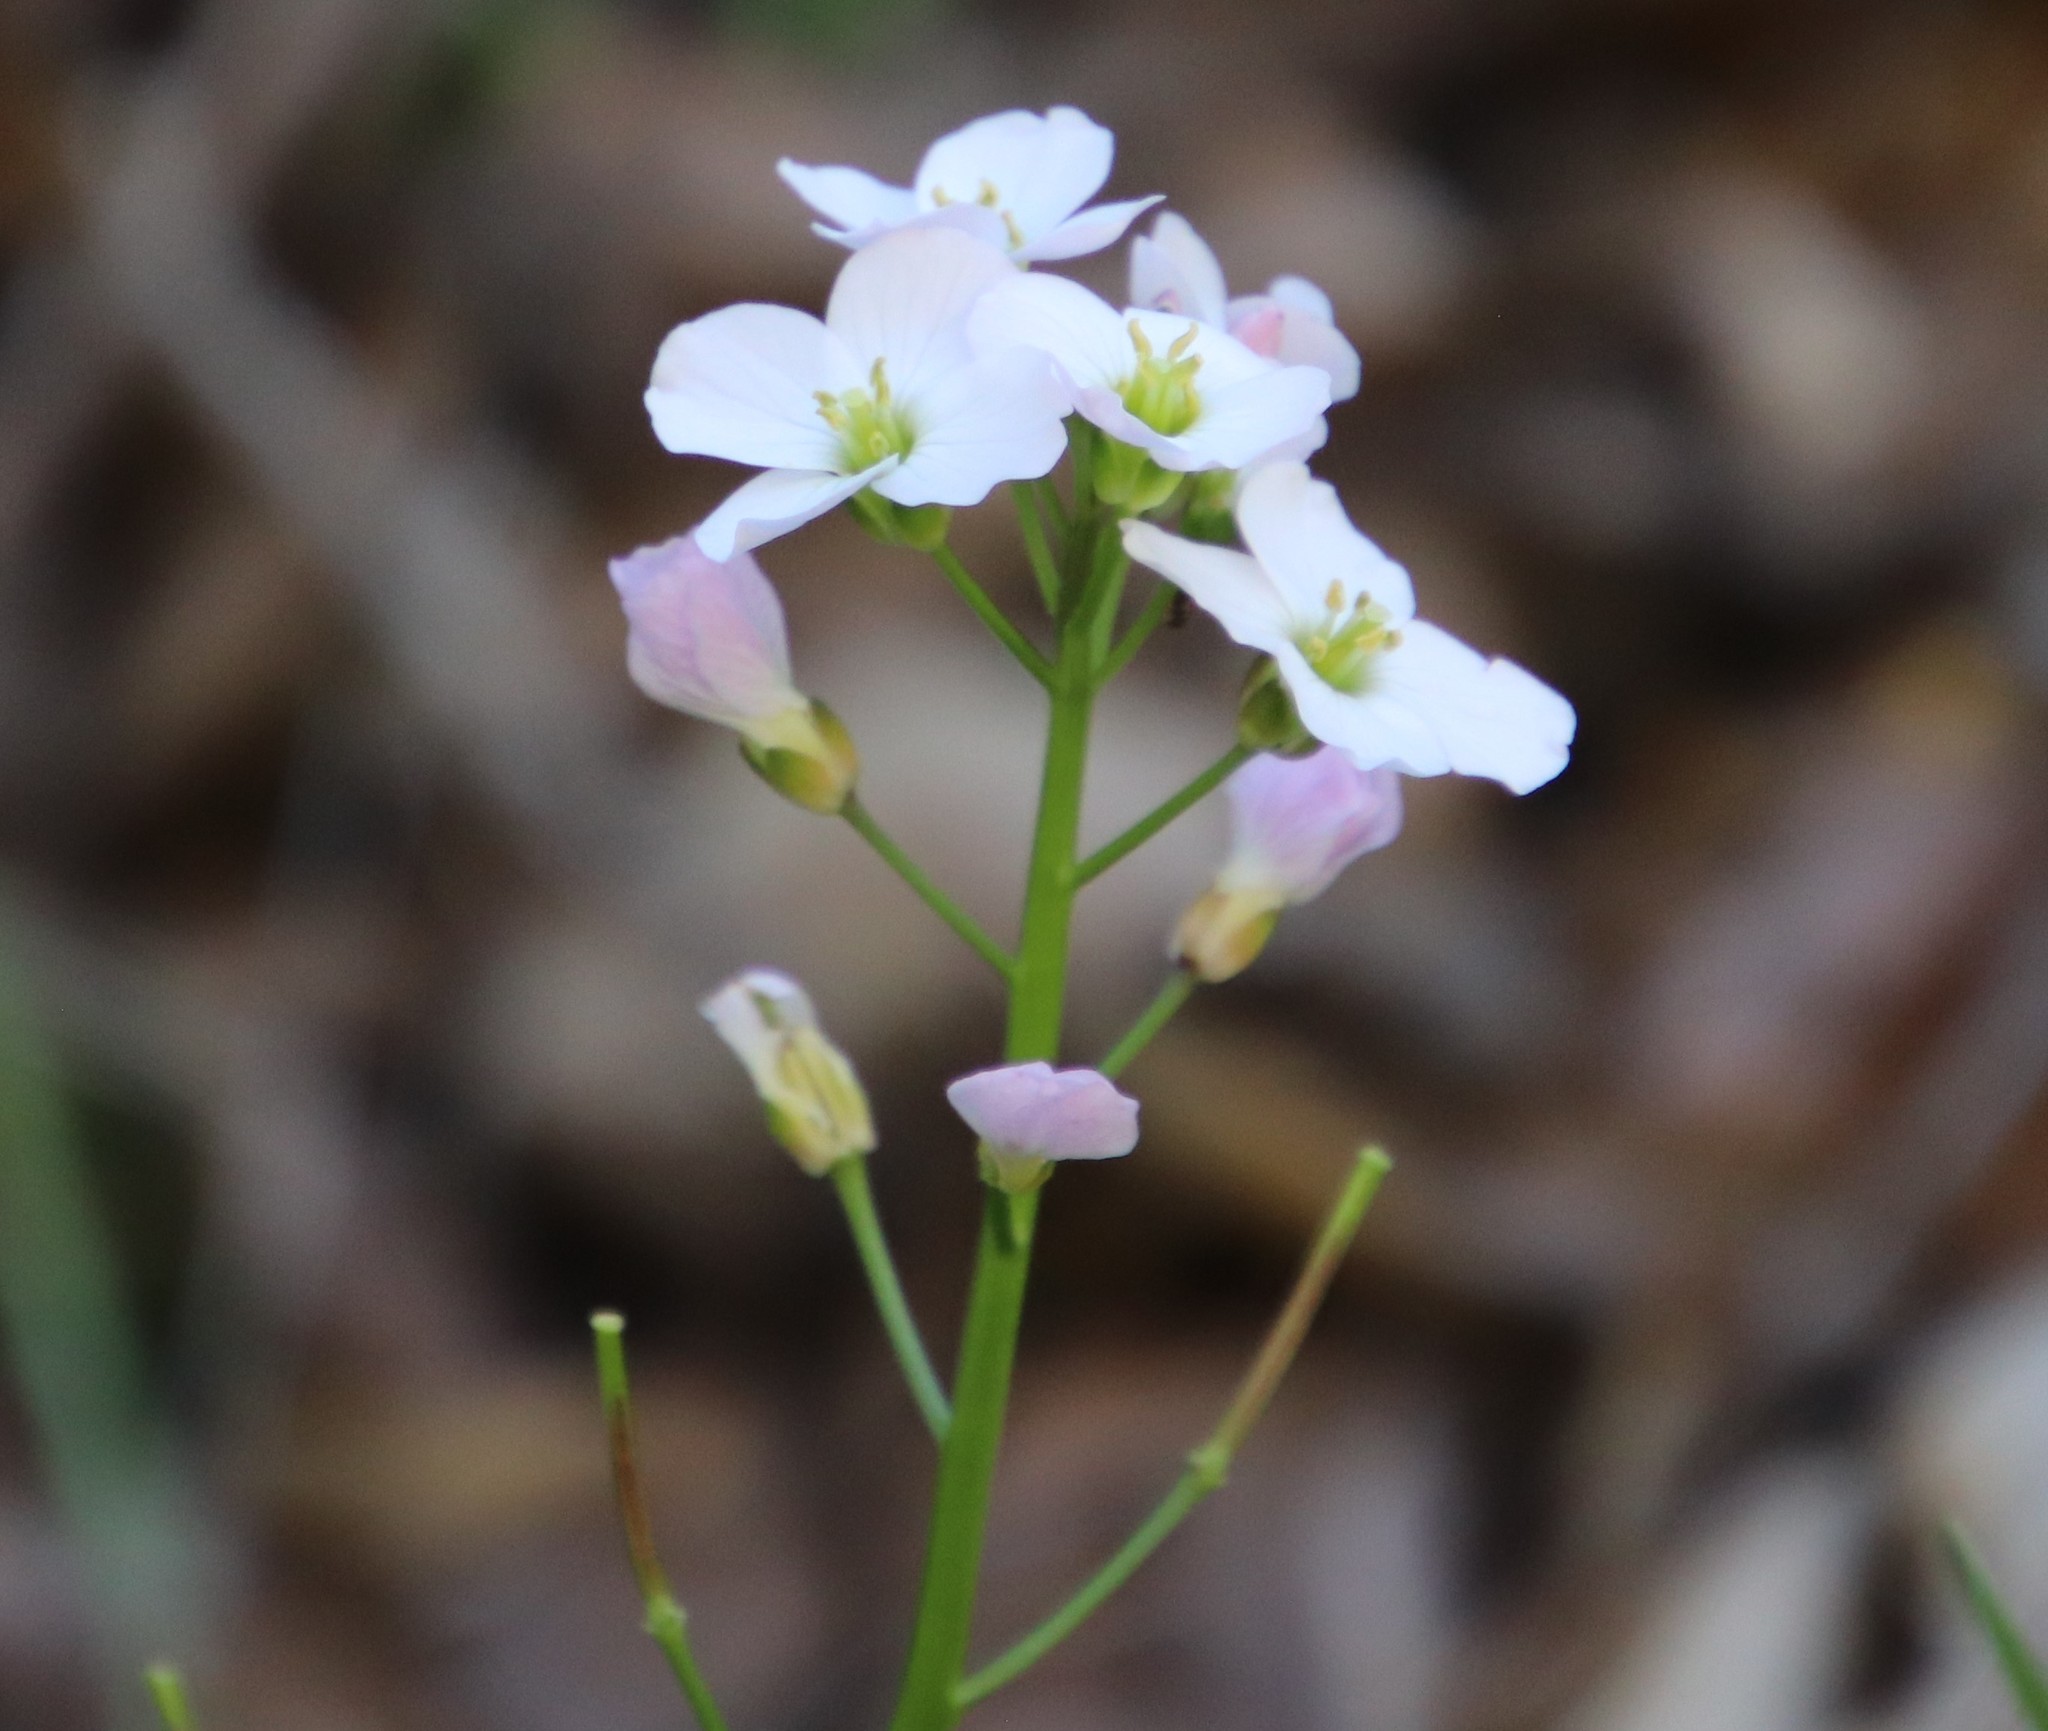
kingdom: Plantae
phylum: Tracheophyta
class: Magnoliopsida
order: Brassicales
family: Brassicaceae
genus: Cardamine
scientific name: Cardamine californica
